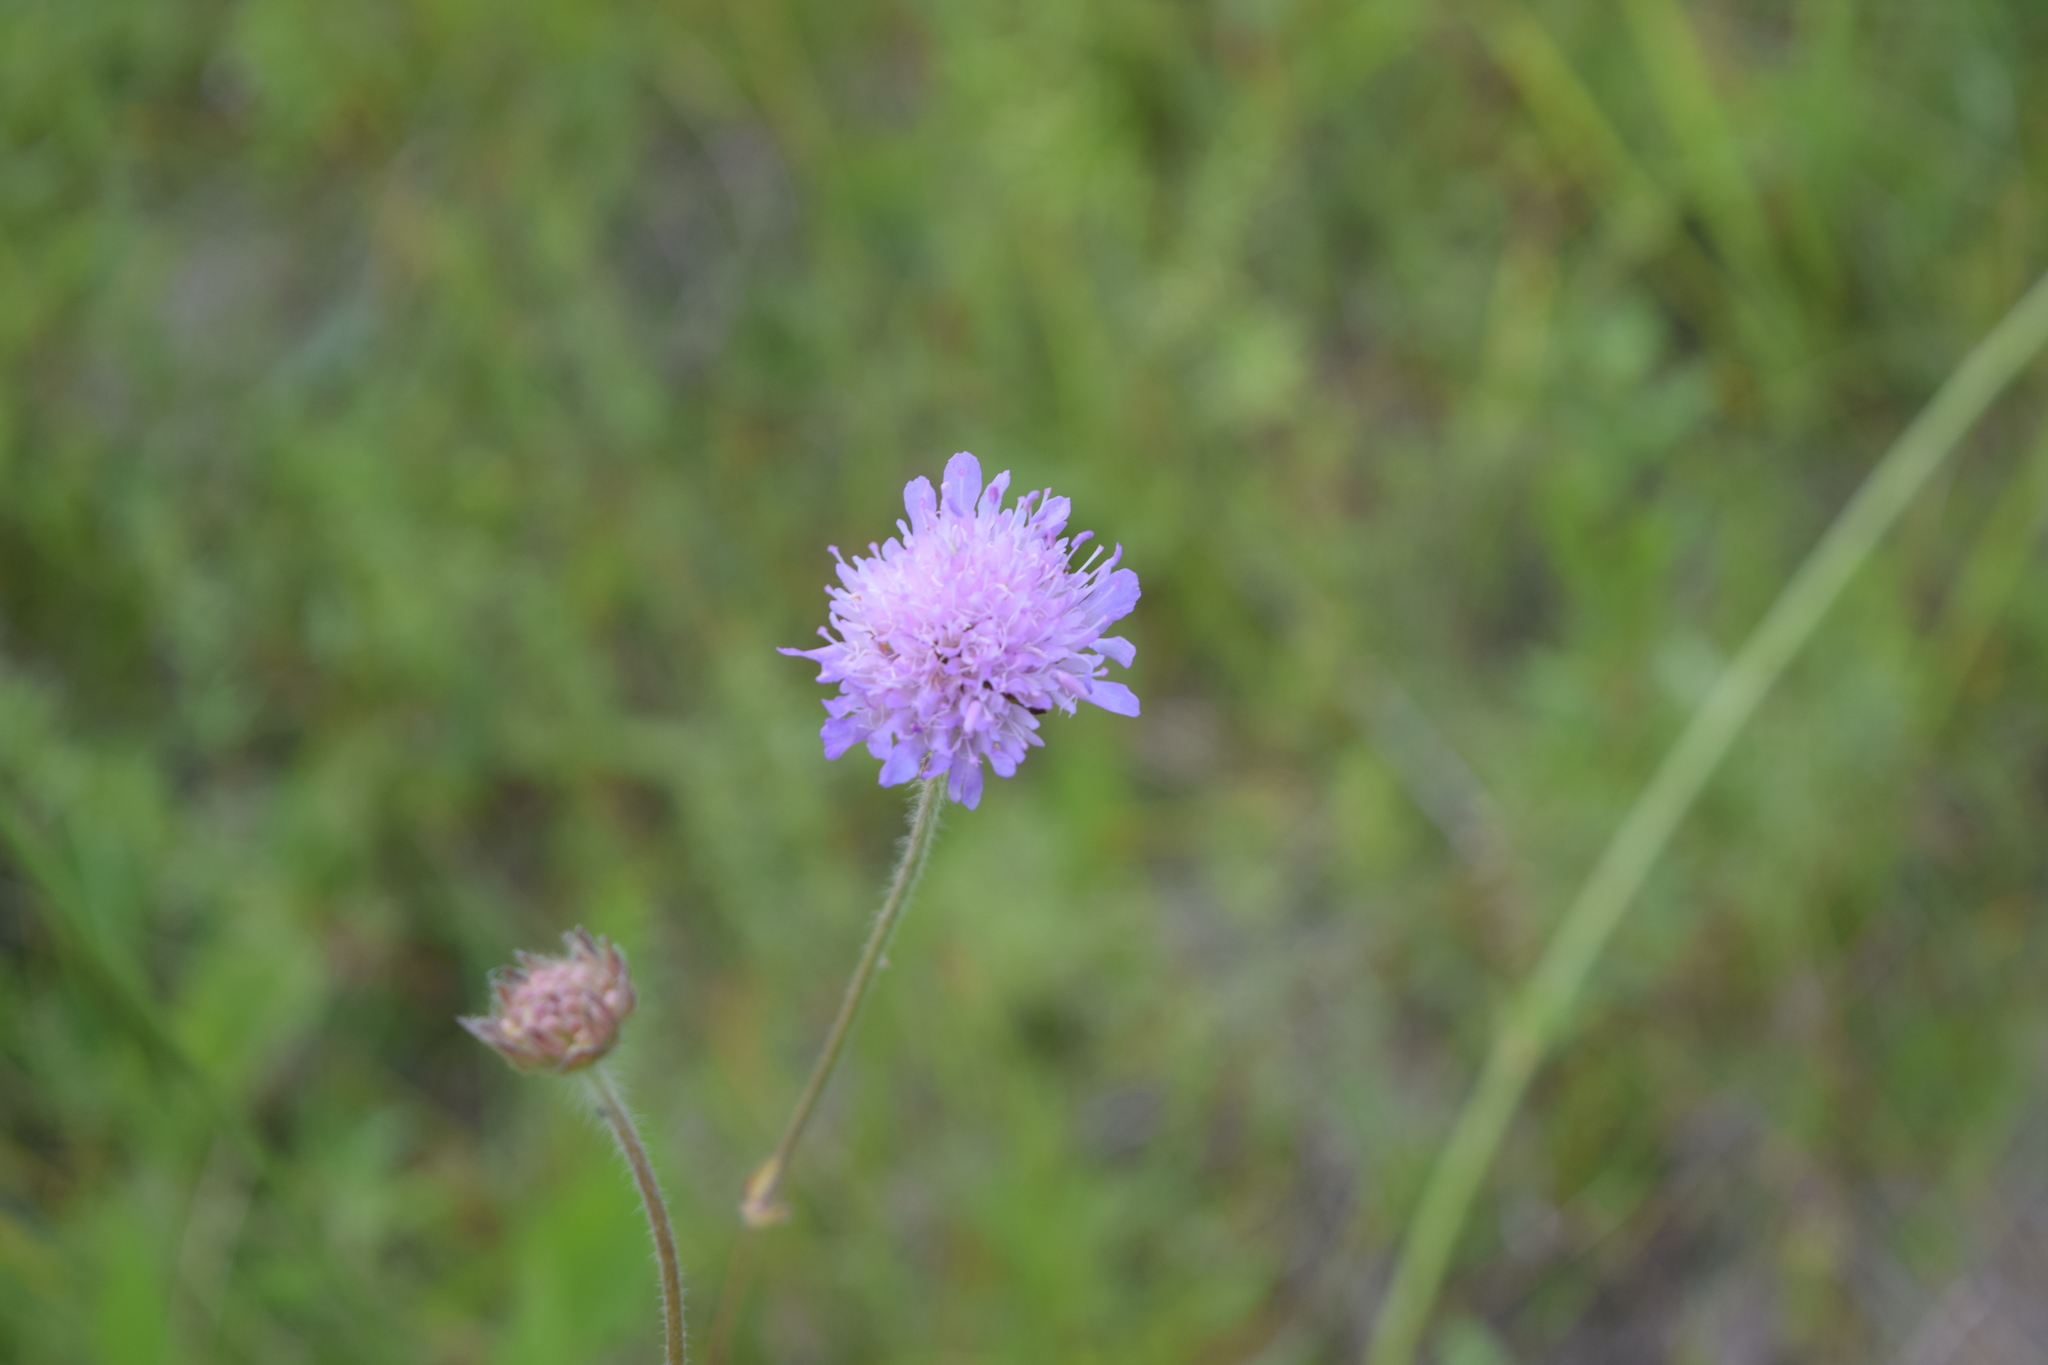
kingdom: Plantae
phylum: Tracheophyta
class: Magnoliopsida
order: Dipsacales
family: Caprifoliaceae
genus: Knautia
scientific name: Knautia arvensis
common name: Field scabiosa
